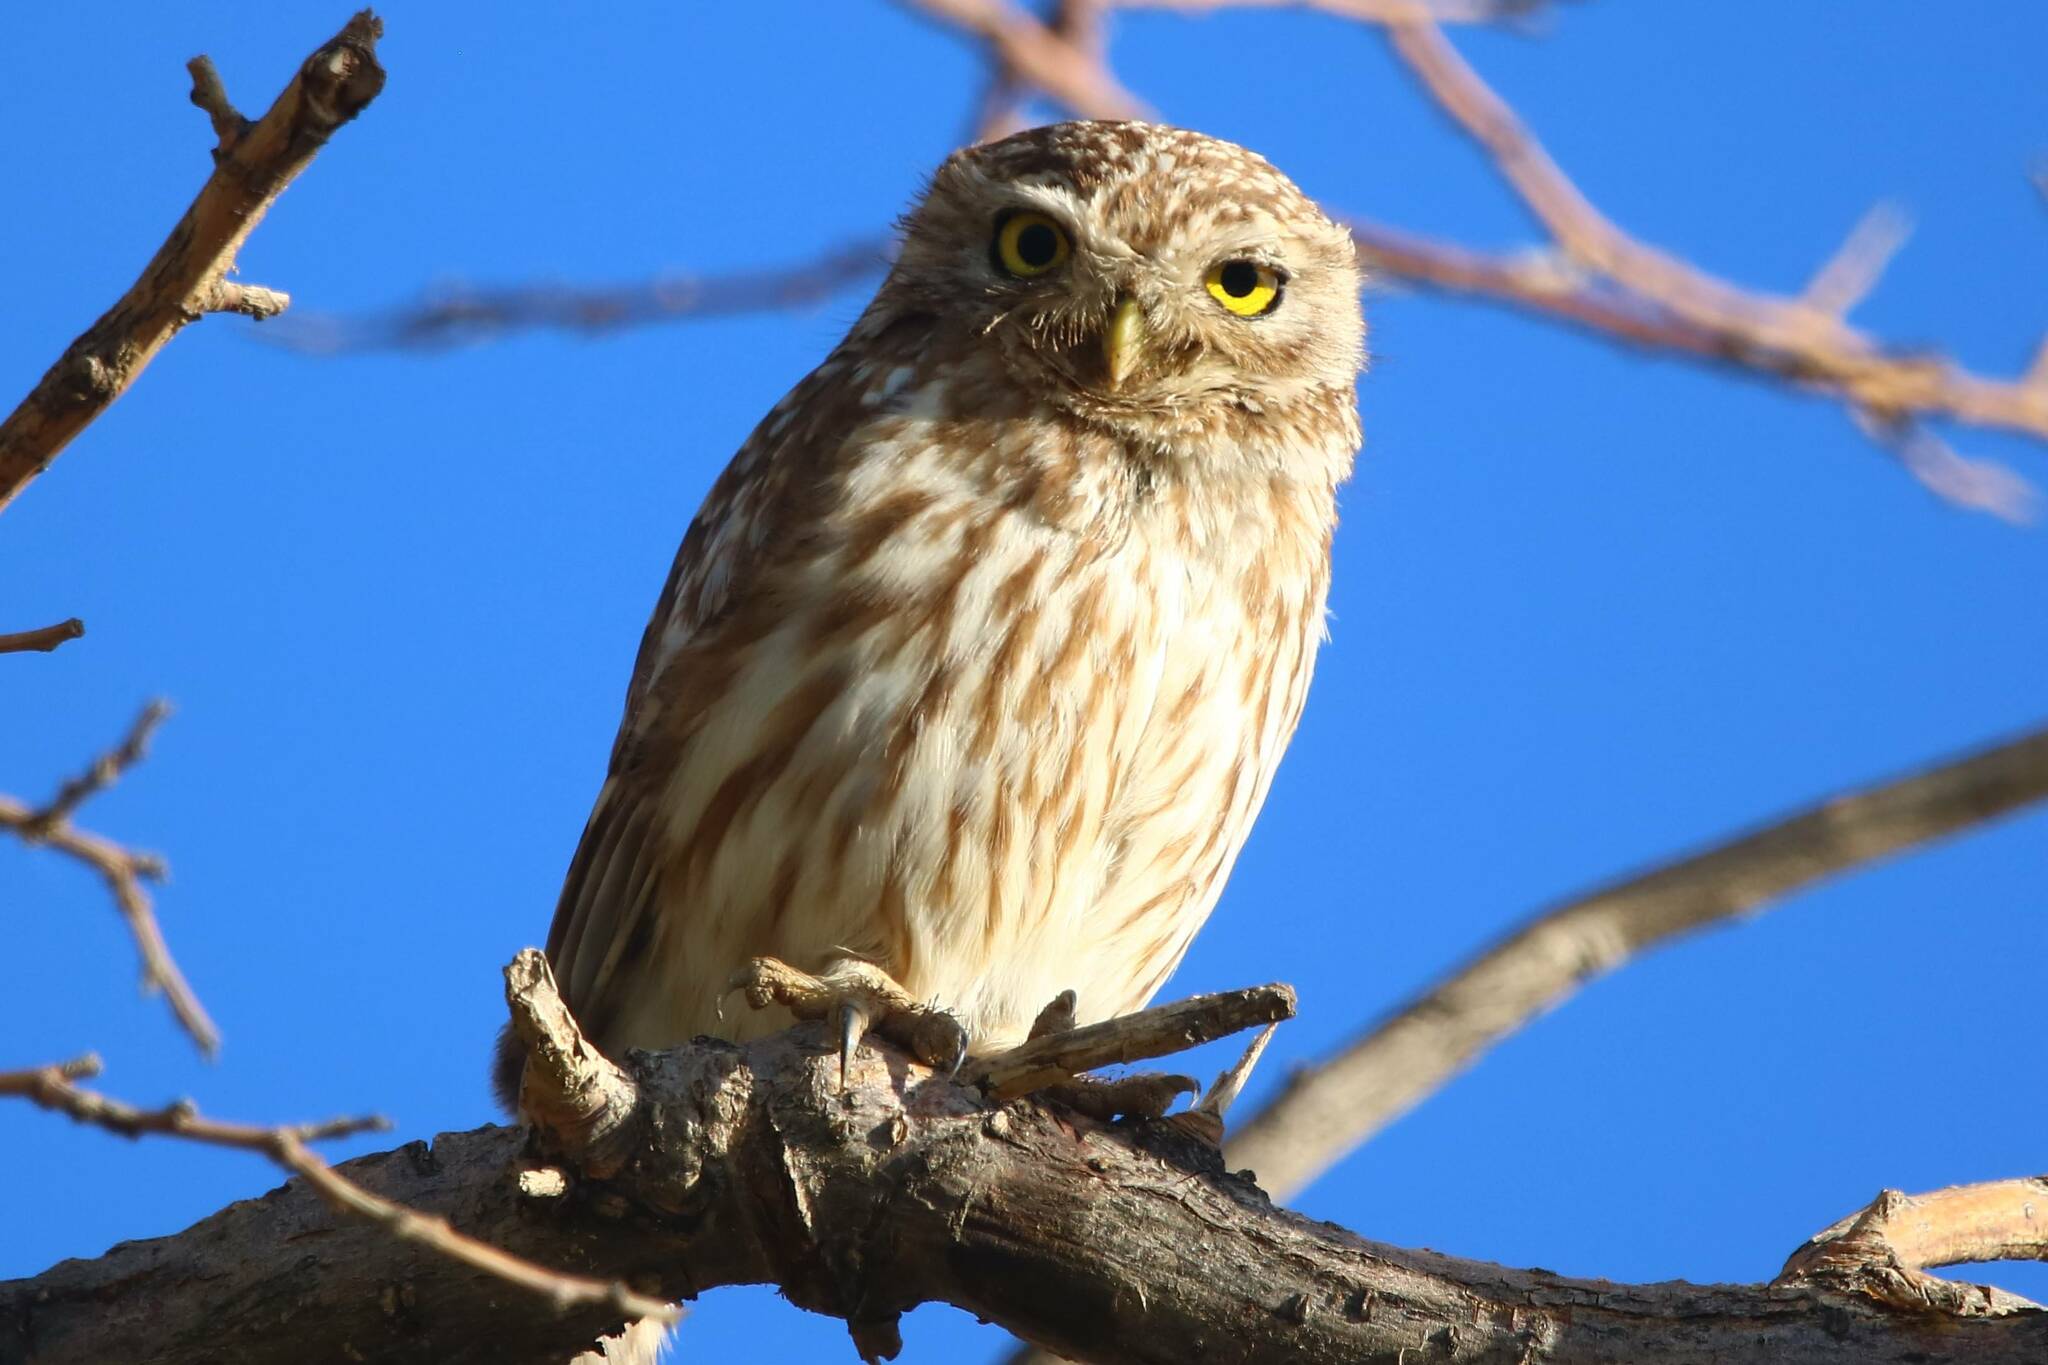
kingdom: Animalia
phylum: Chordata
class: Aves
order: Strigiformes
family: Strigidae
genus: Athene
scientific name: Athene noctua
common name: Little owl
